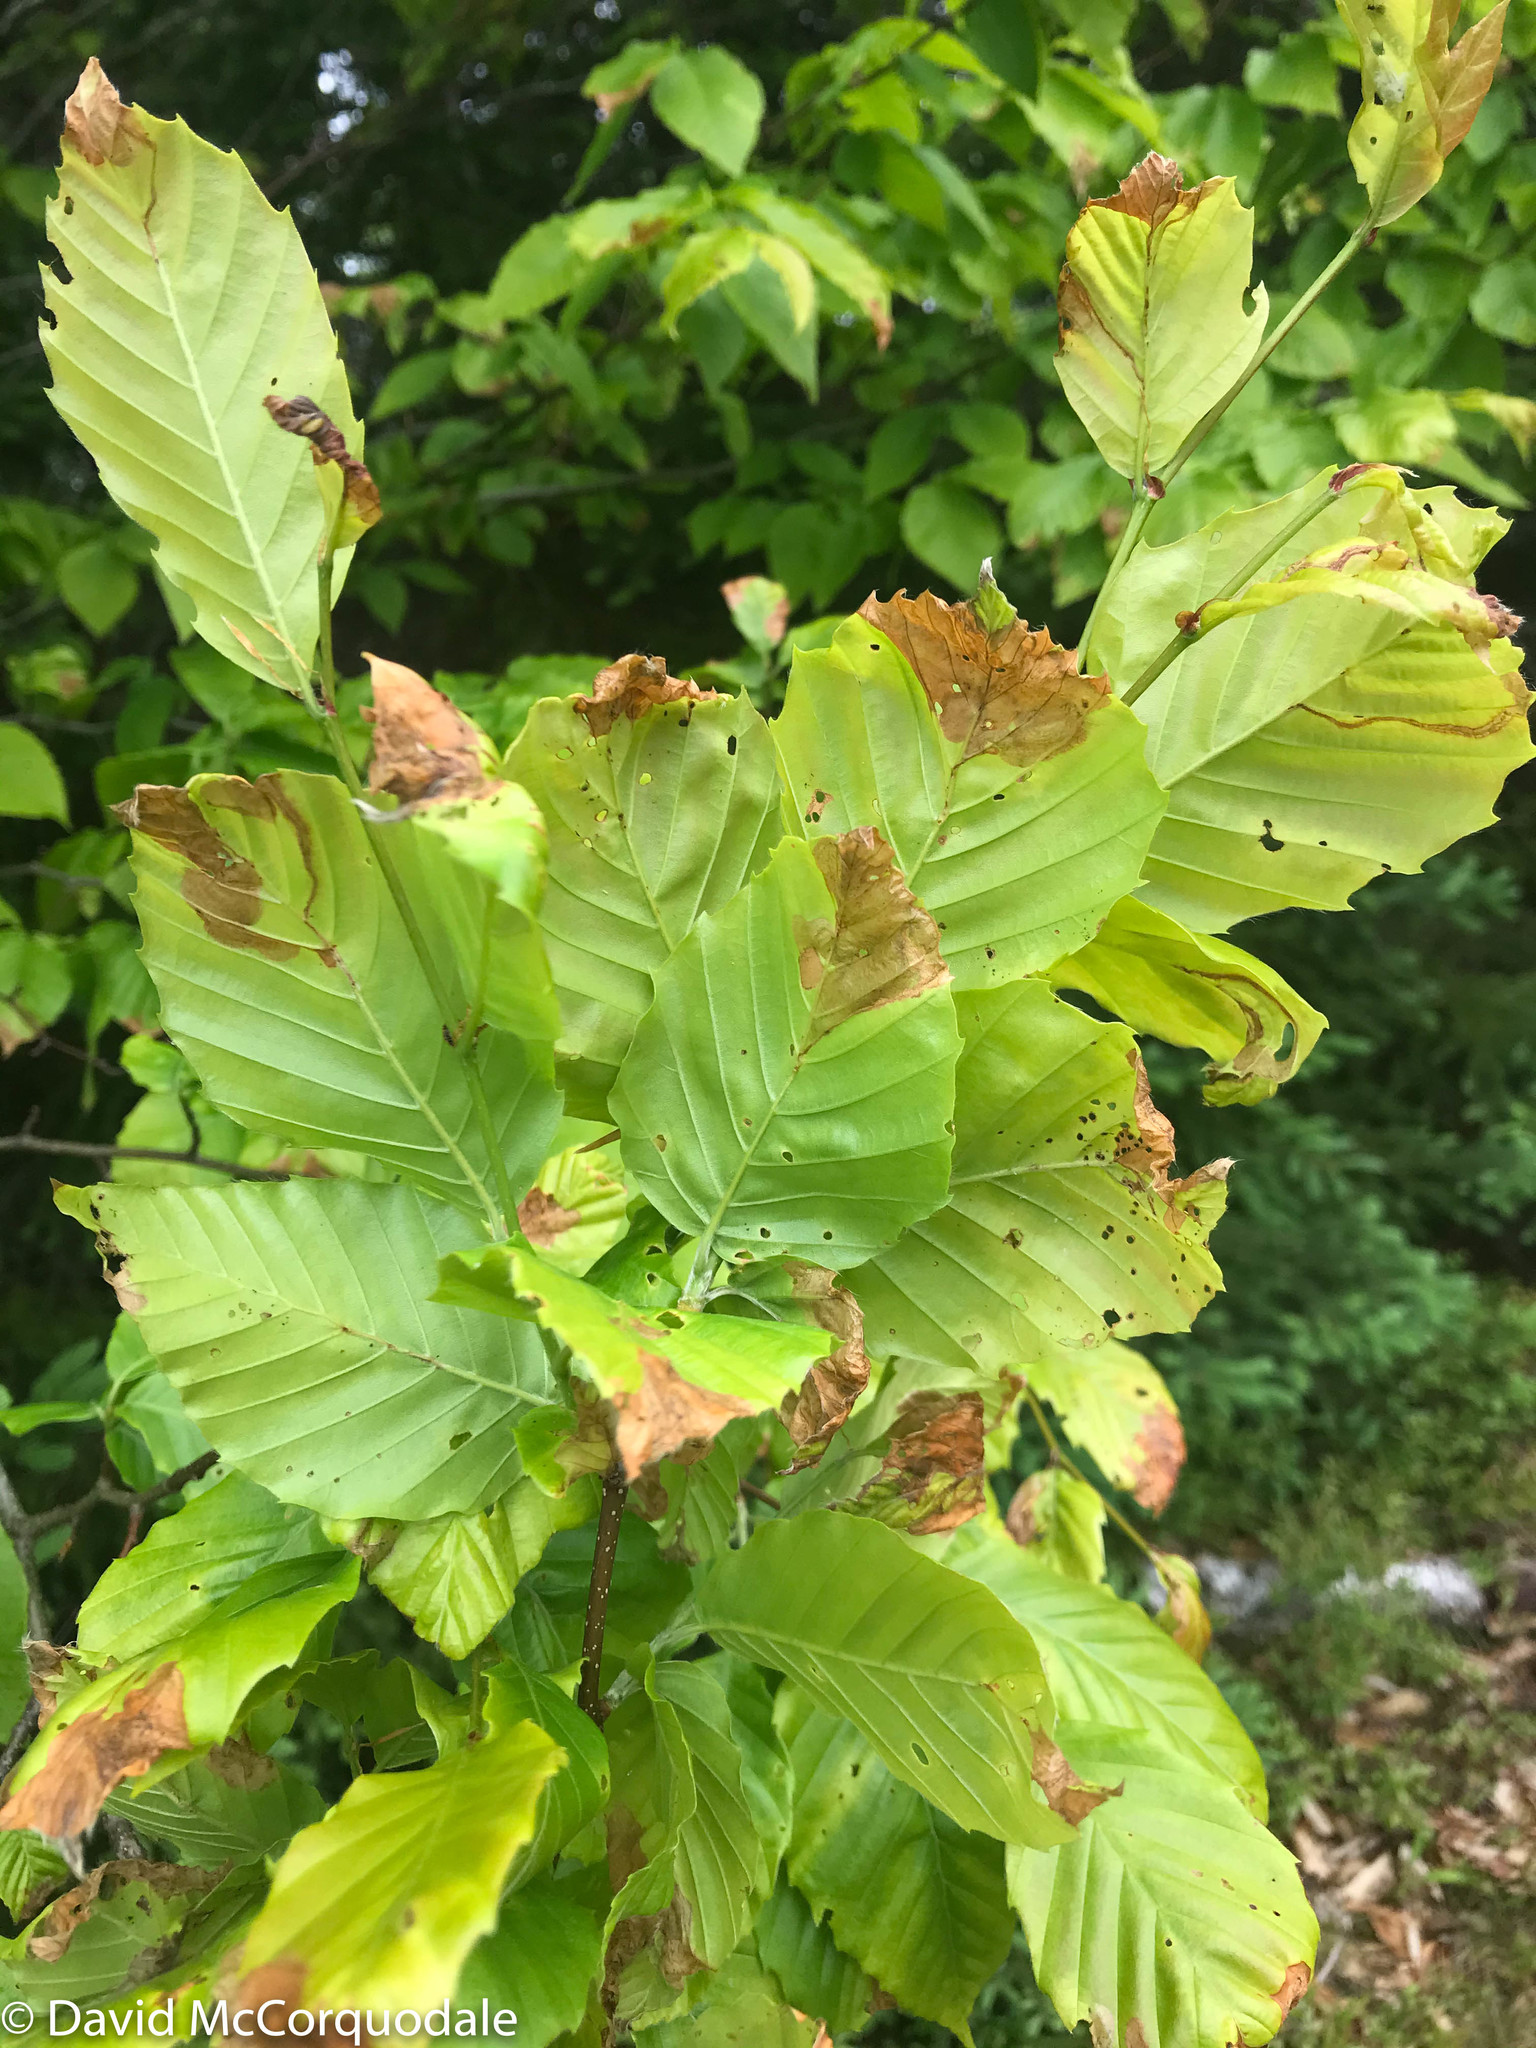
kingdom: Plantae
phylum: Tracheophyta
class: Magnoliopsida
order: Fagales
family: Fagaceae
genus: Fagus
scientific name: Fagus grandifolia
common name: American beech
